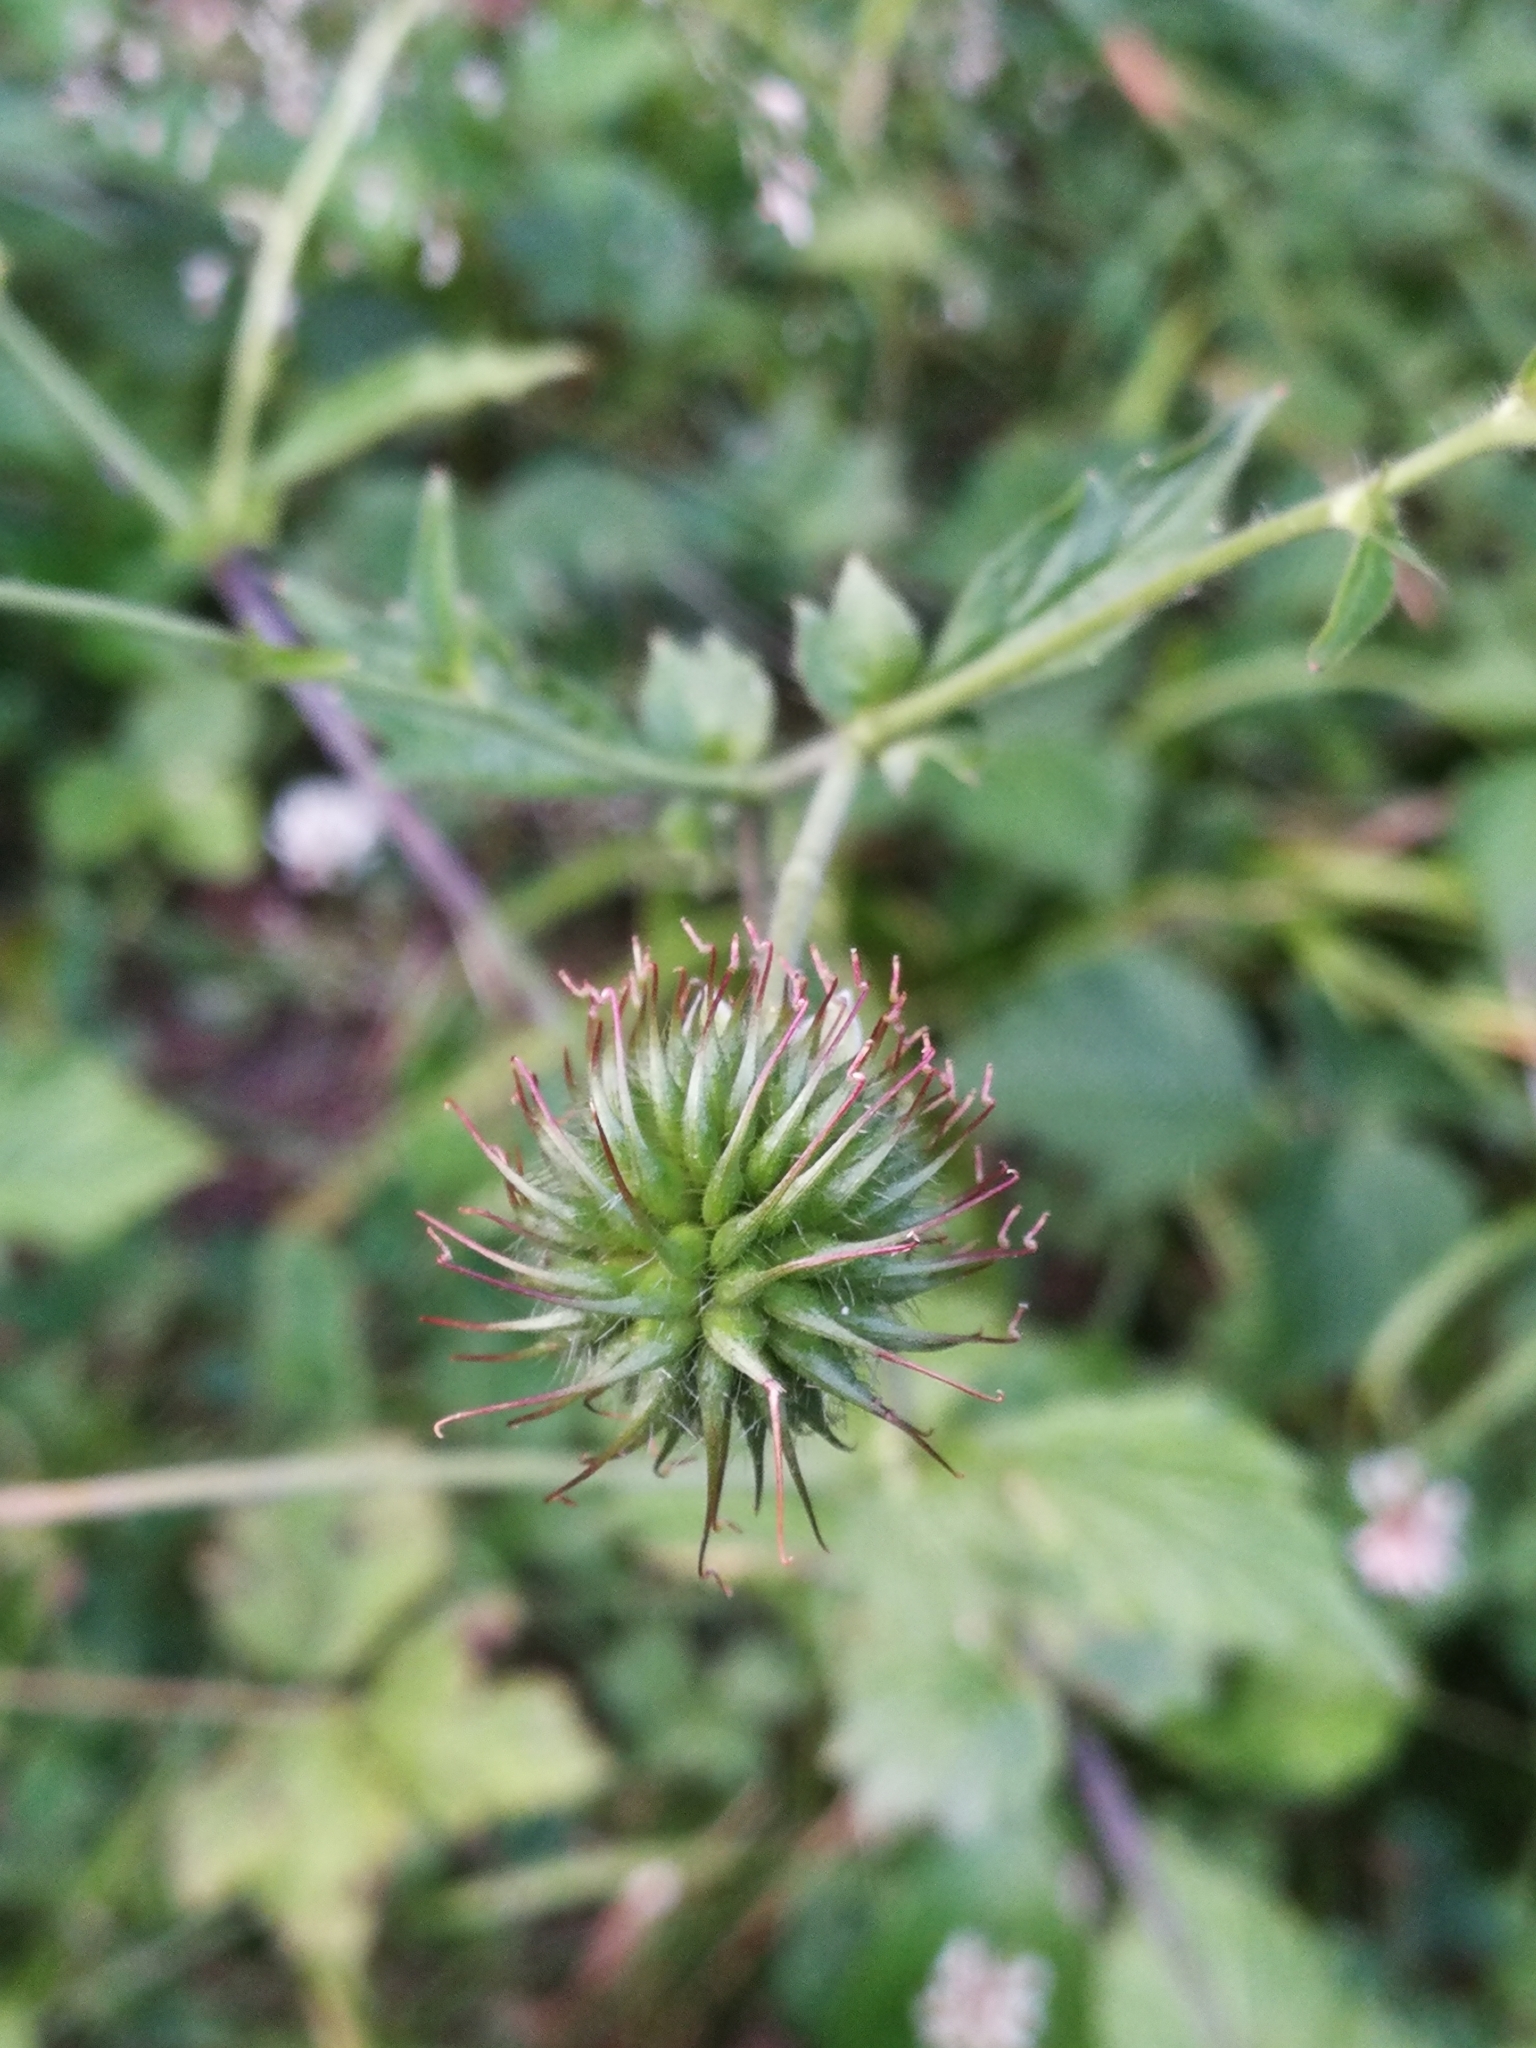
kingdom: Plantae
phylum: Tracheophyta
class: Magnoliopsida
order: Rosales
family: Rosaceae
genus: Geum
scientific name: Geum urbanum
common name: Wood avens
